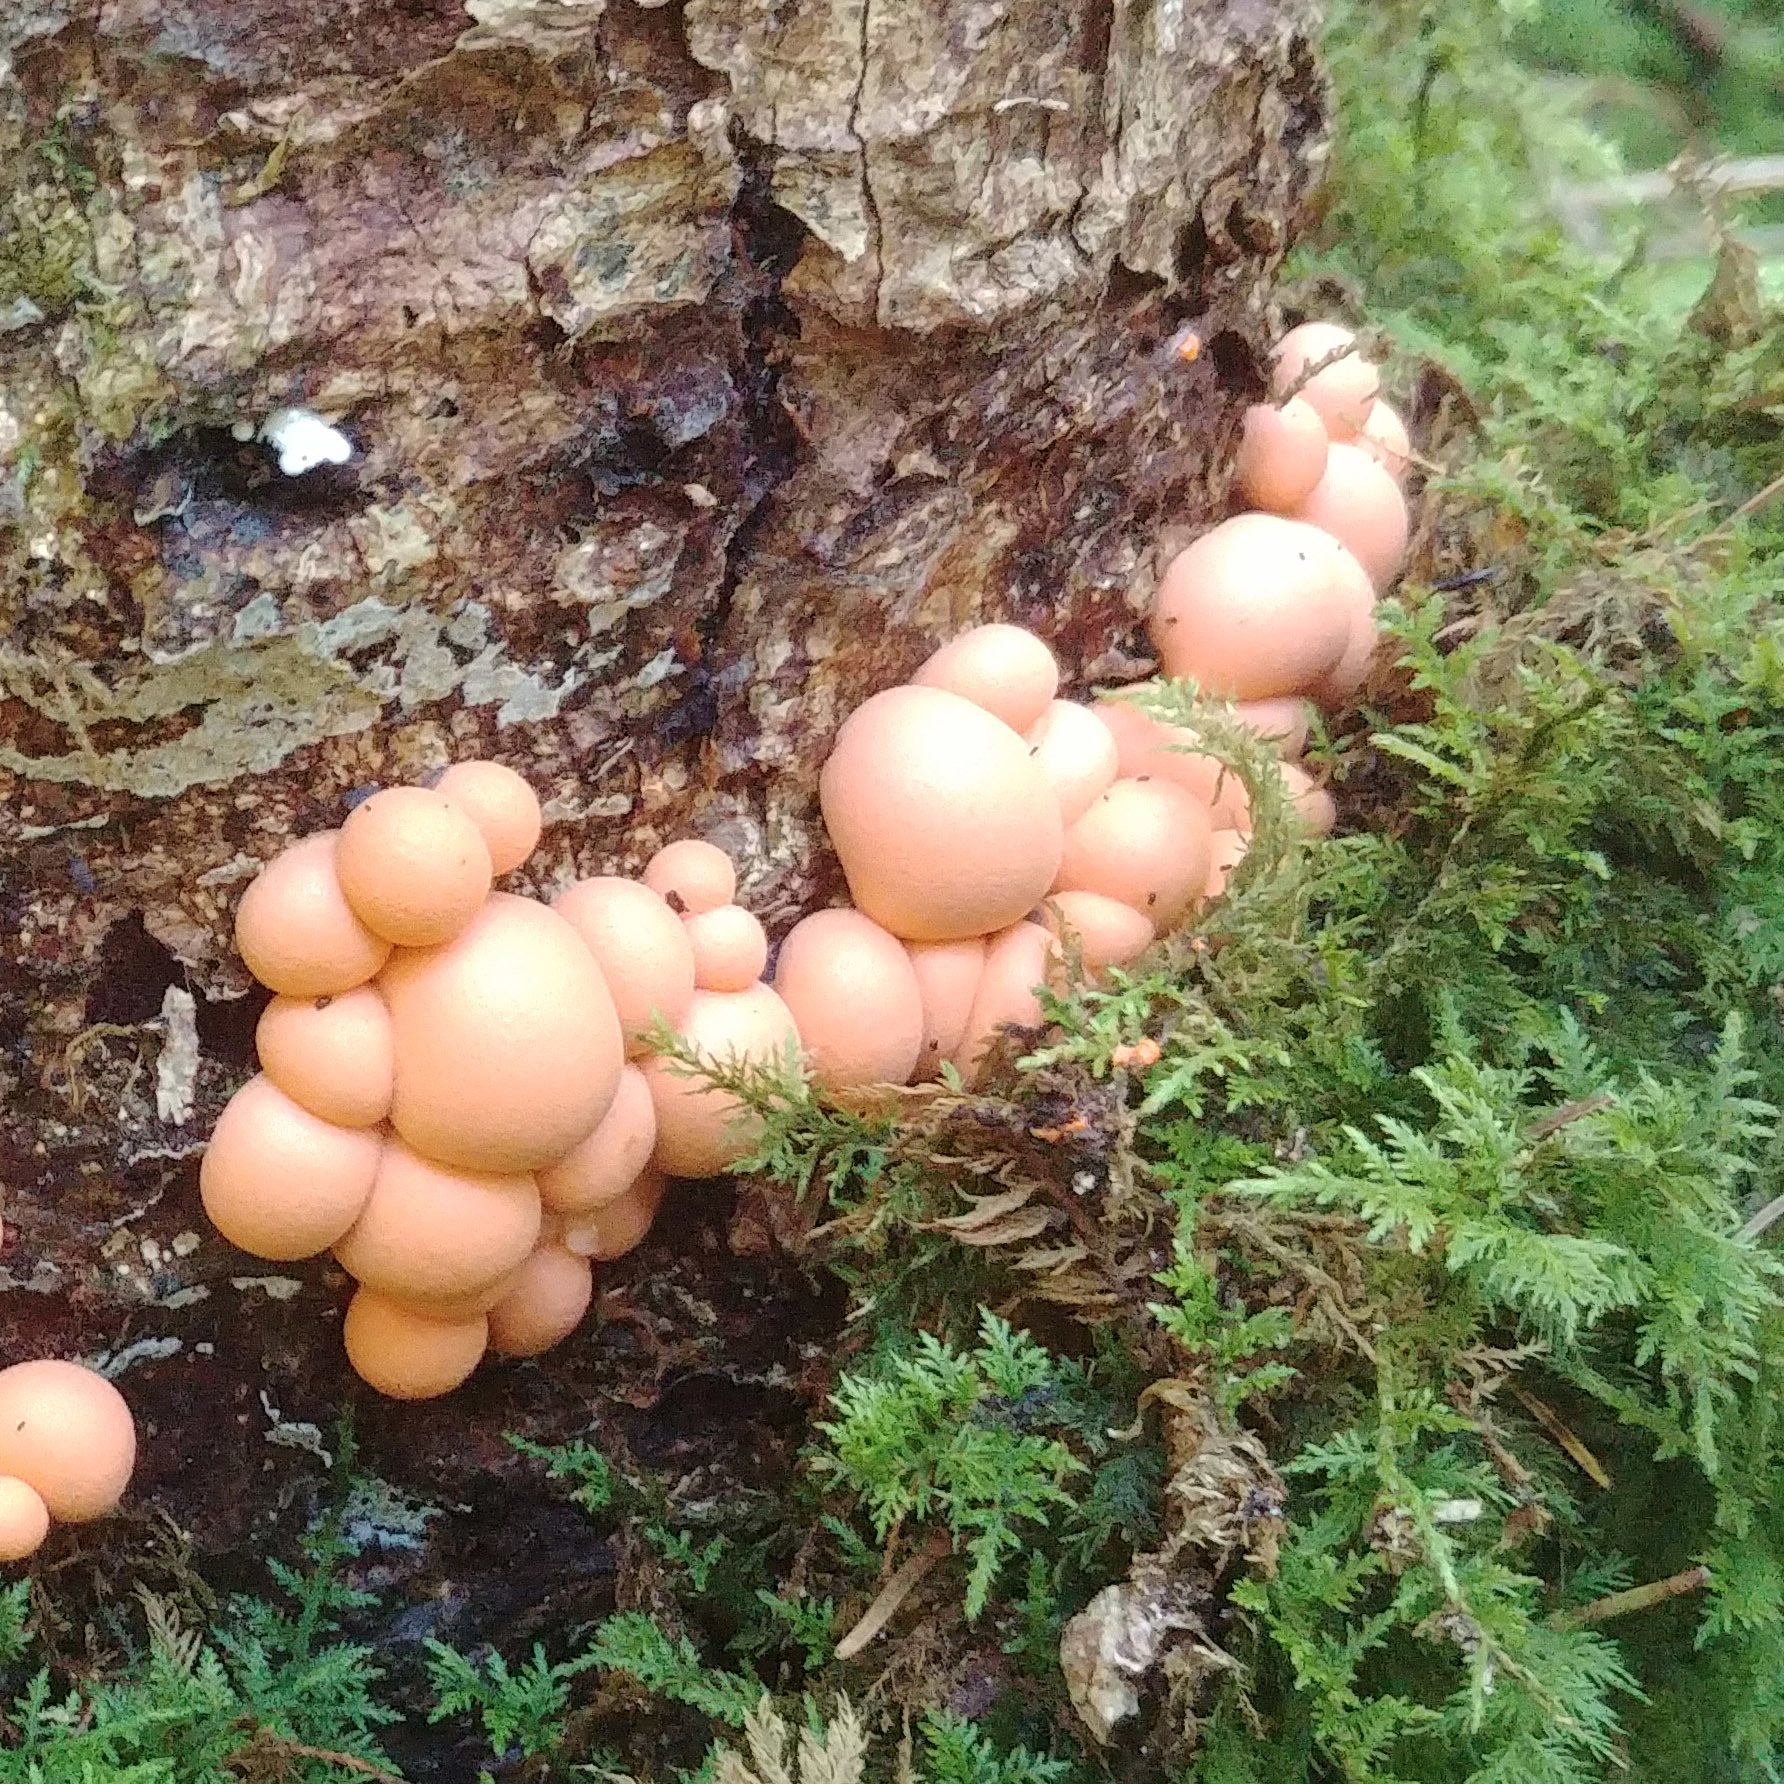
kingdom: Protozoa
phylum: Mycetozoa
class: Myxomycetes
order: Cribrariales
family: Tubiferaceae
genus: Lycogala
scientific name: Lycogala epidendrum
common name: Wolf's milk
